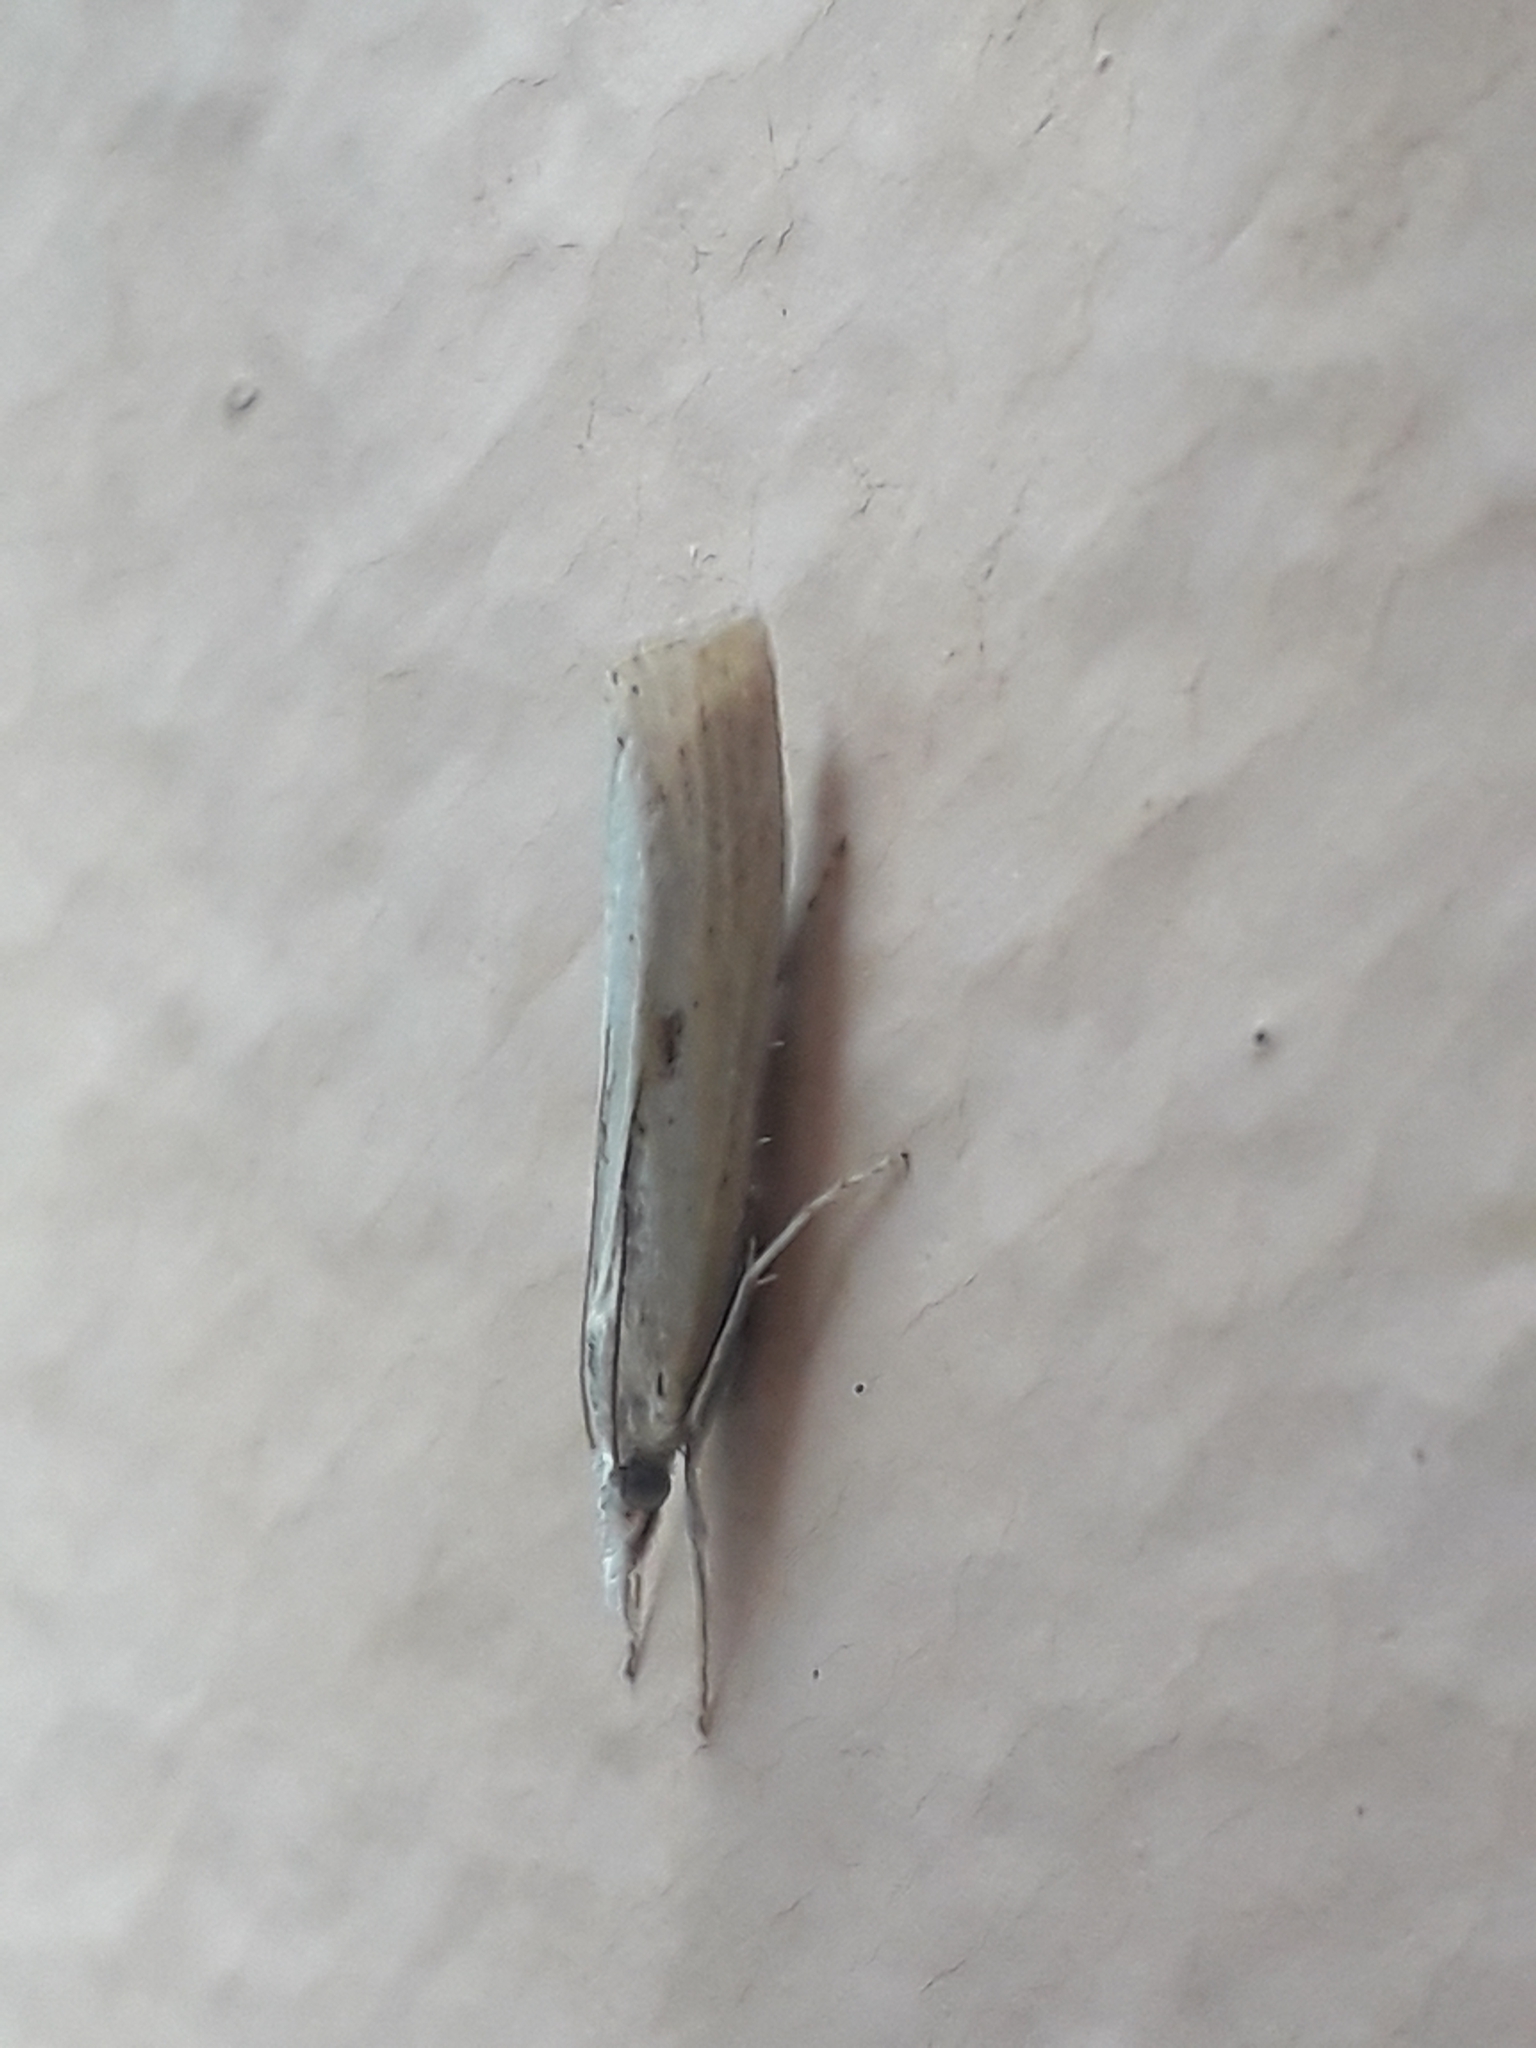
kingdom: Animalia
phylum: Arthropoda
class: Insecta
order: Lepidoptera
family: Crambidae
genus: Agriphila
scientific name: Agriphila inquinatella
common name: Barred grass-veneer
